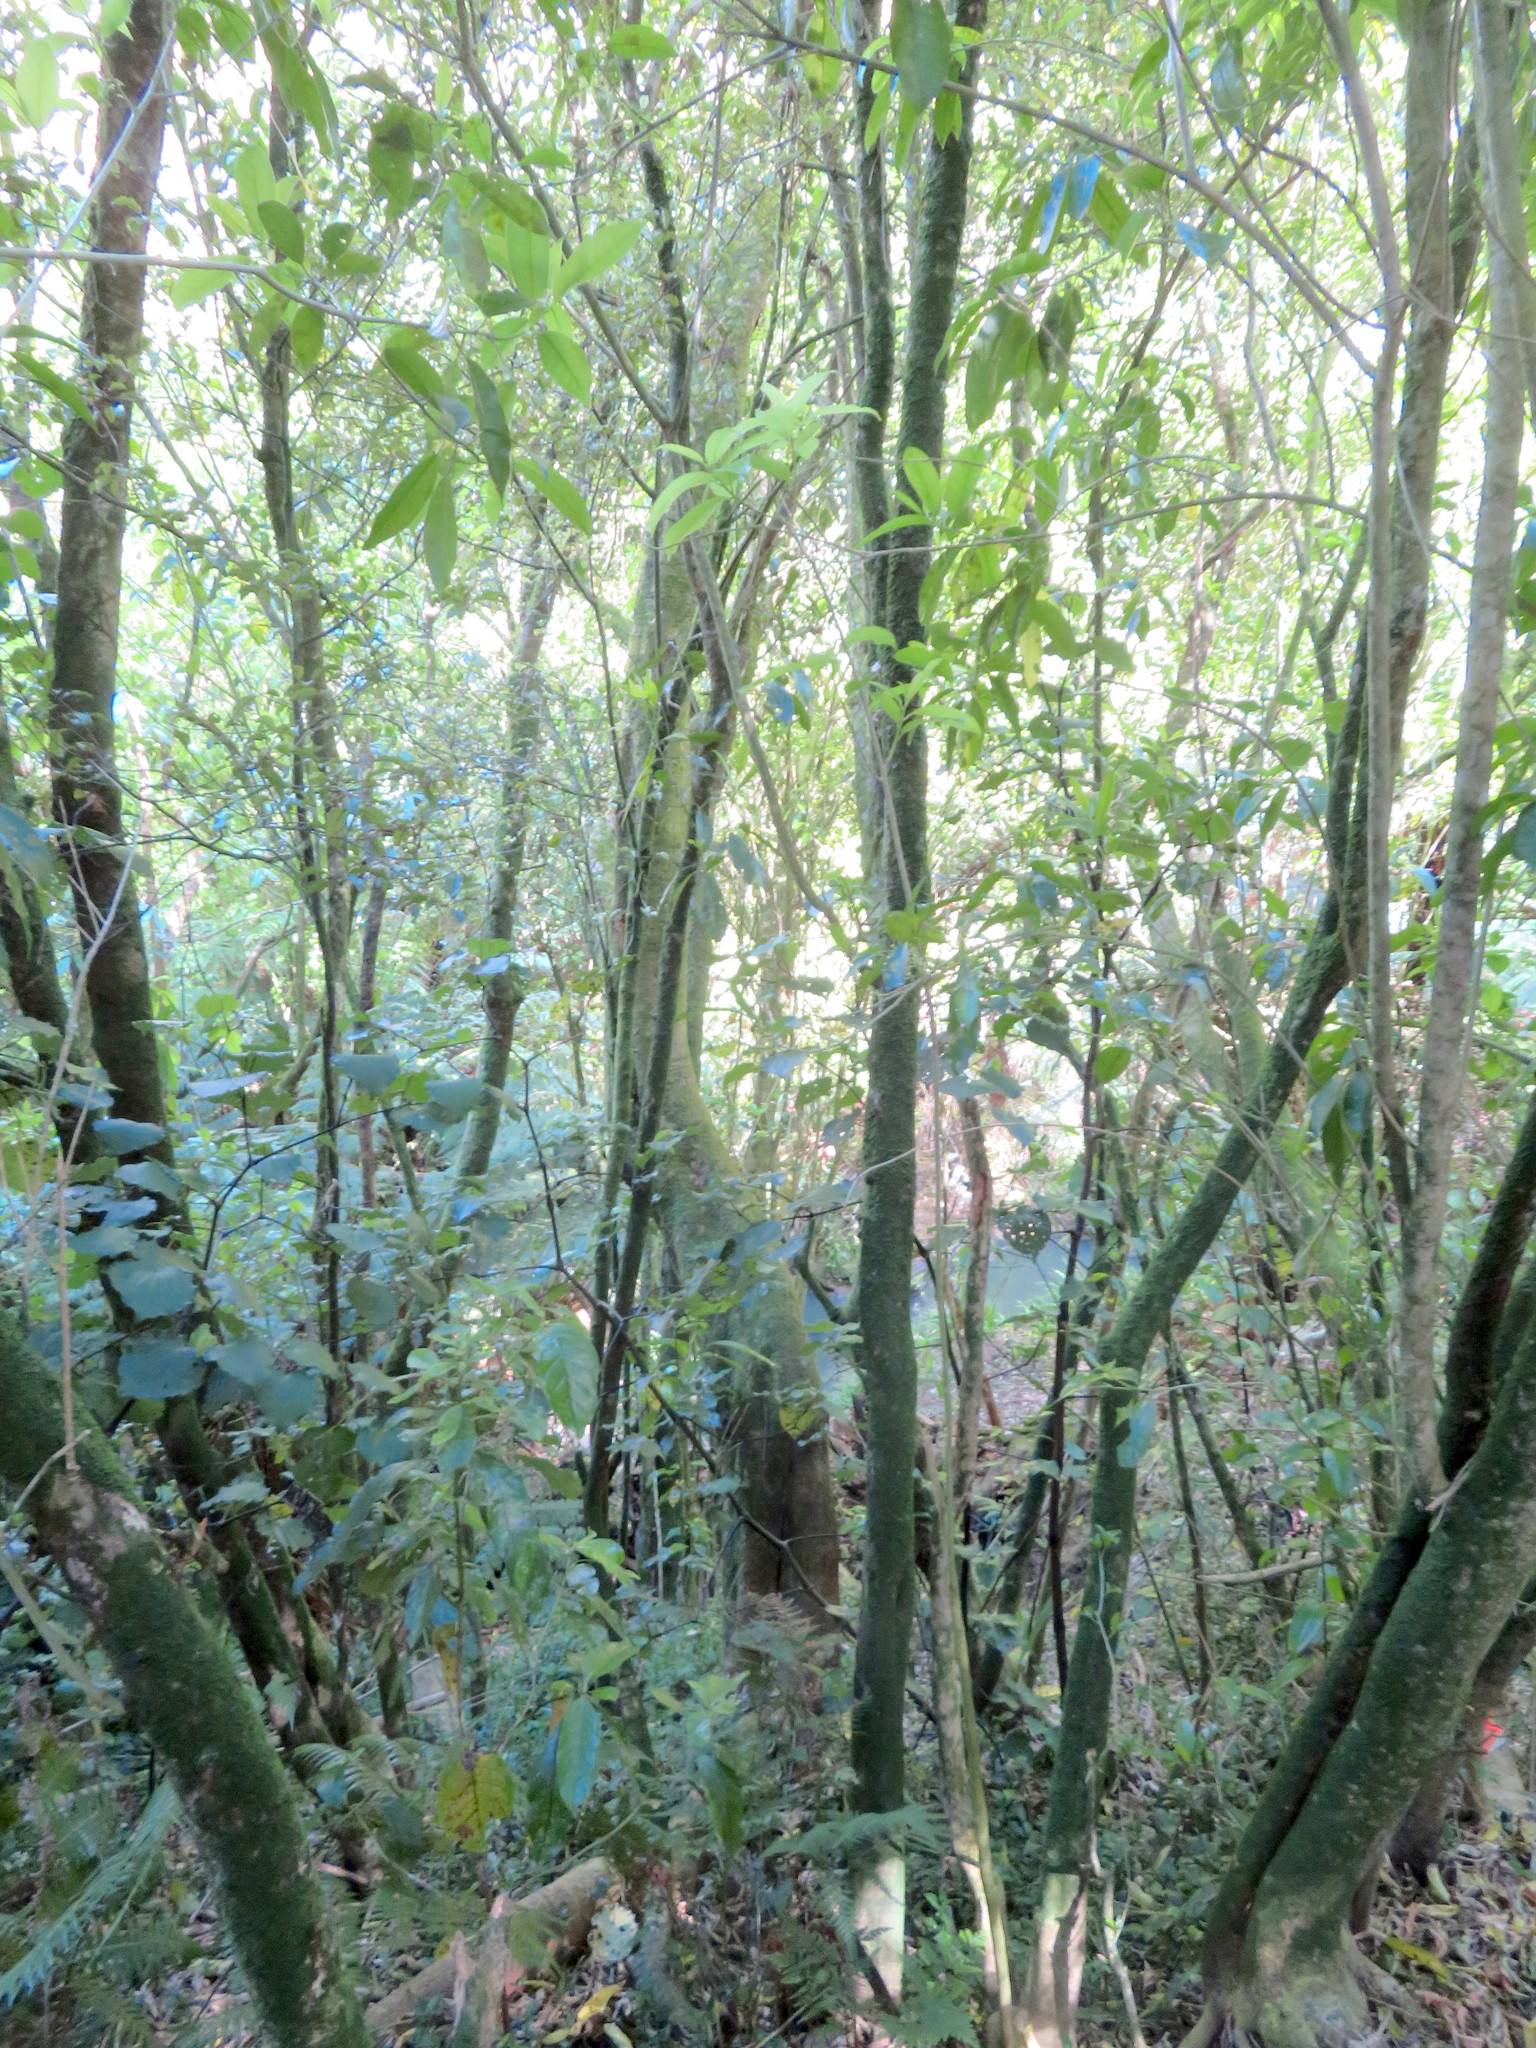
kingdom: Plantae
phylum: Tracheophyta
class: Magnoliopsida
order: Malpighiales
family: Violaceae
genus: Melicytus
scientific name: Melicytus ramiflorus
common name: Mahoe
